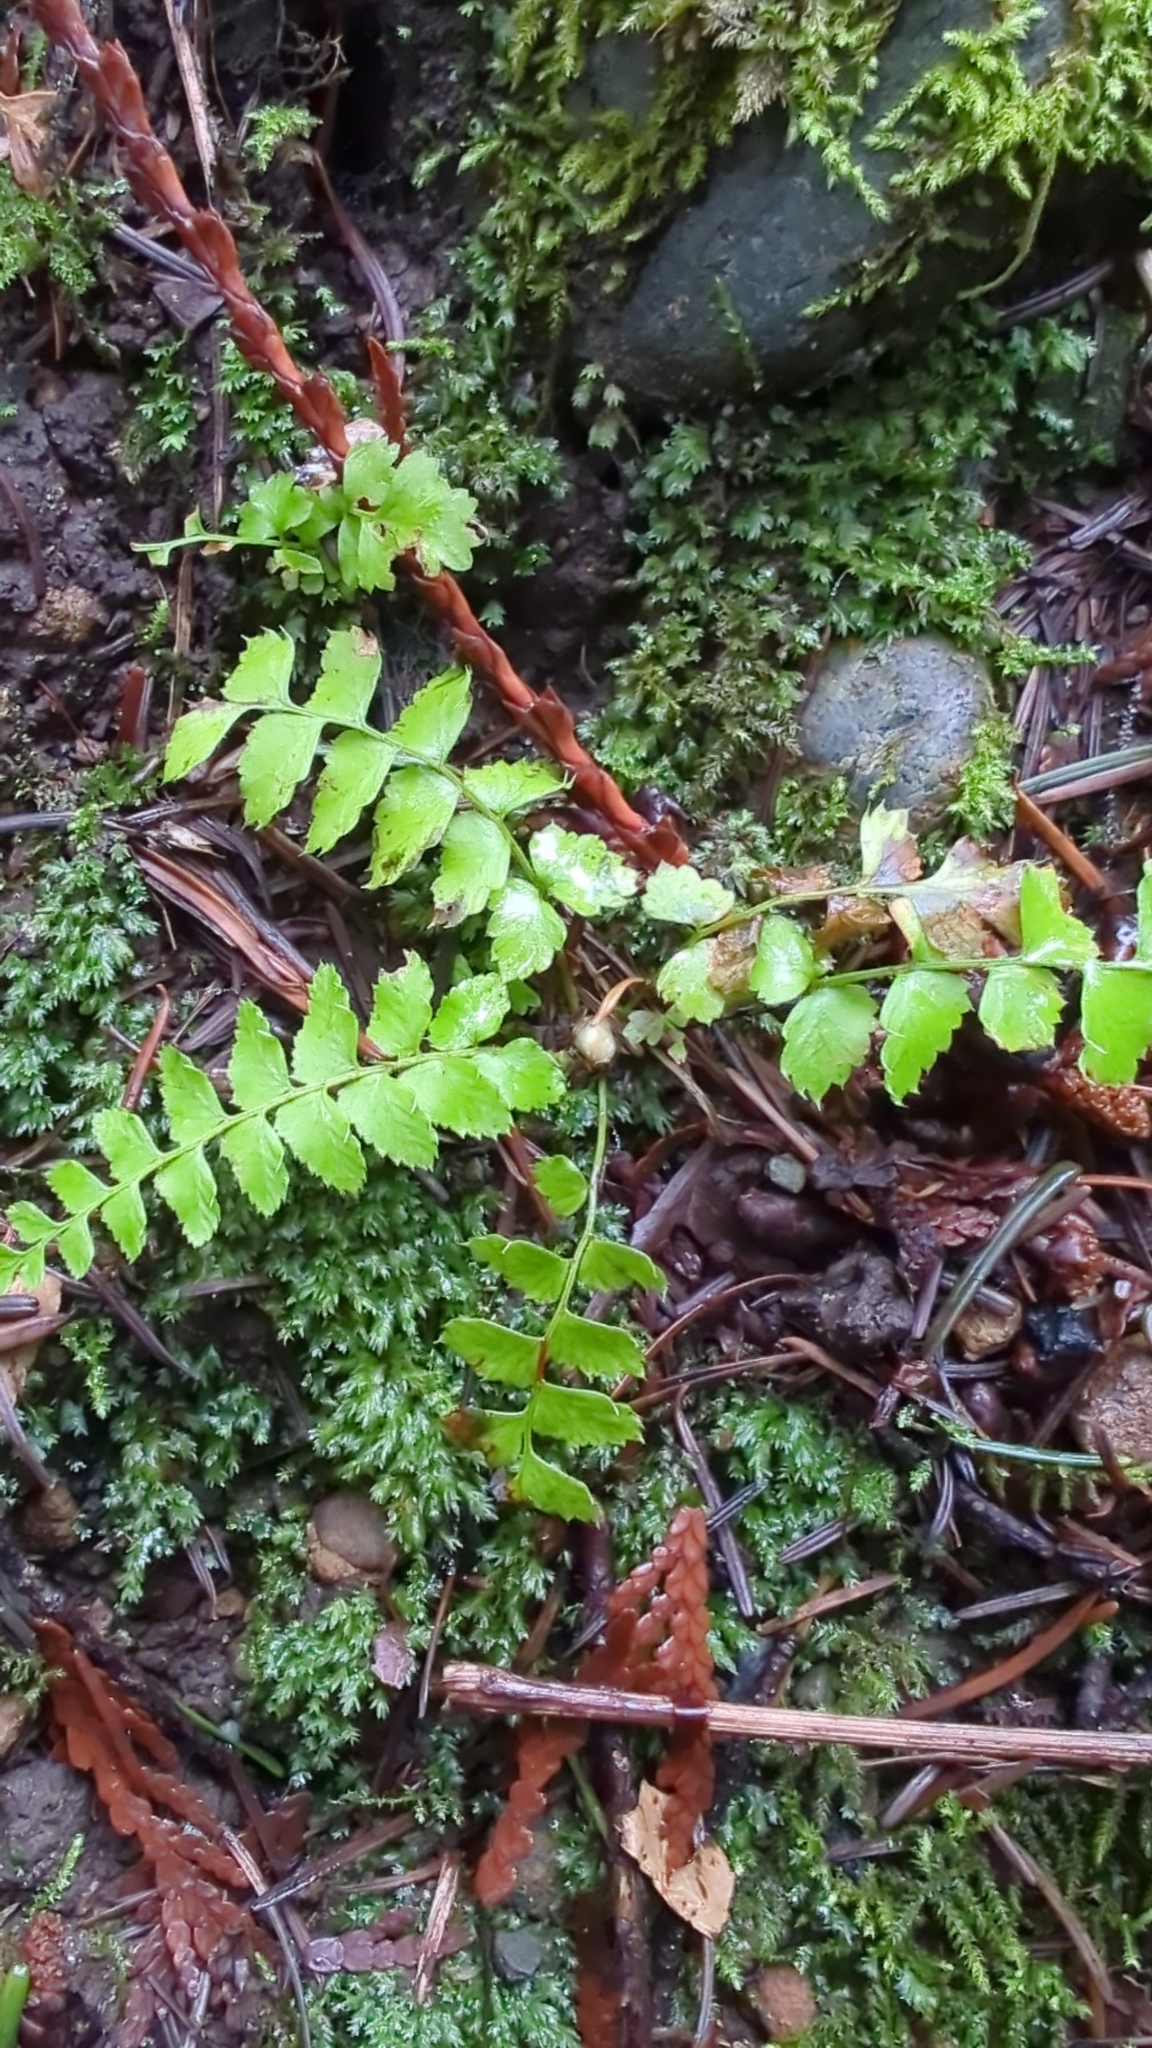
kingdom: Plantae
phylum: Tracheophyta
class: Polypodiopsida
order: Polypodiales
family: Dryopteridaceae
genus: Polystichum
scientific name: Polystichum munitum
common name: Western sword-fern
